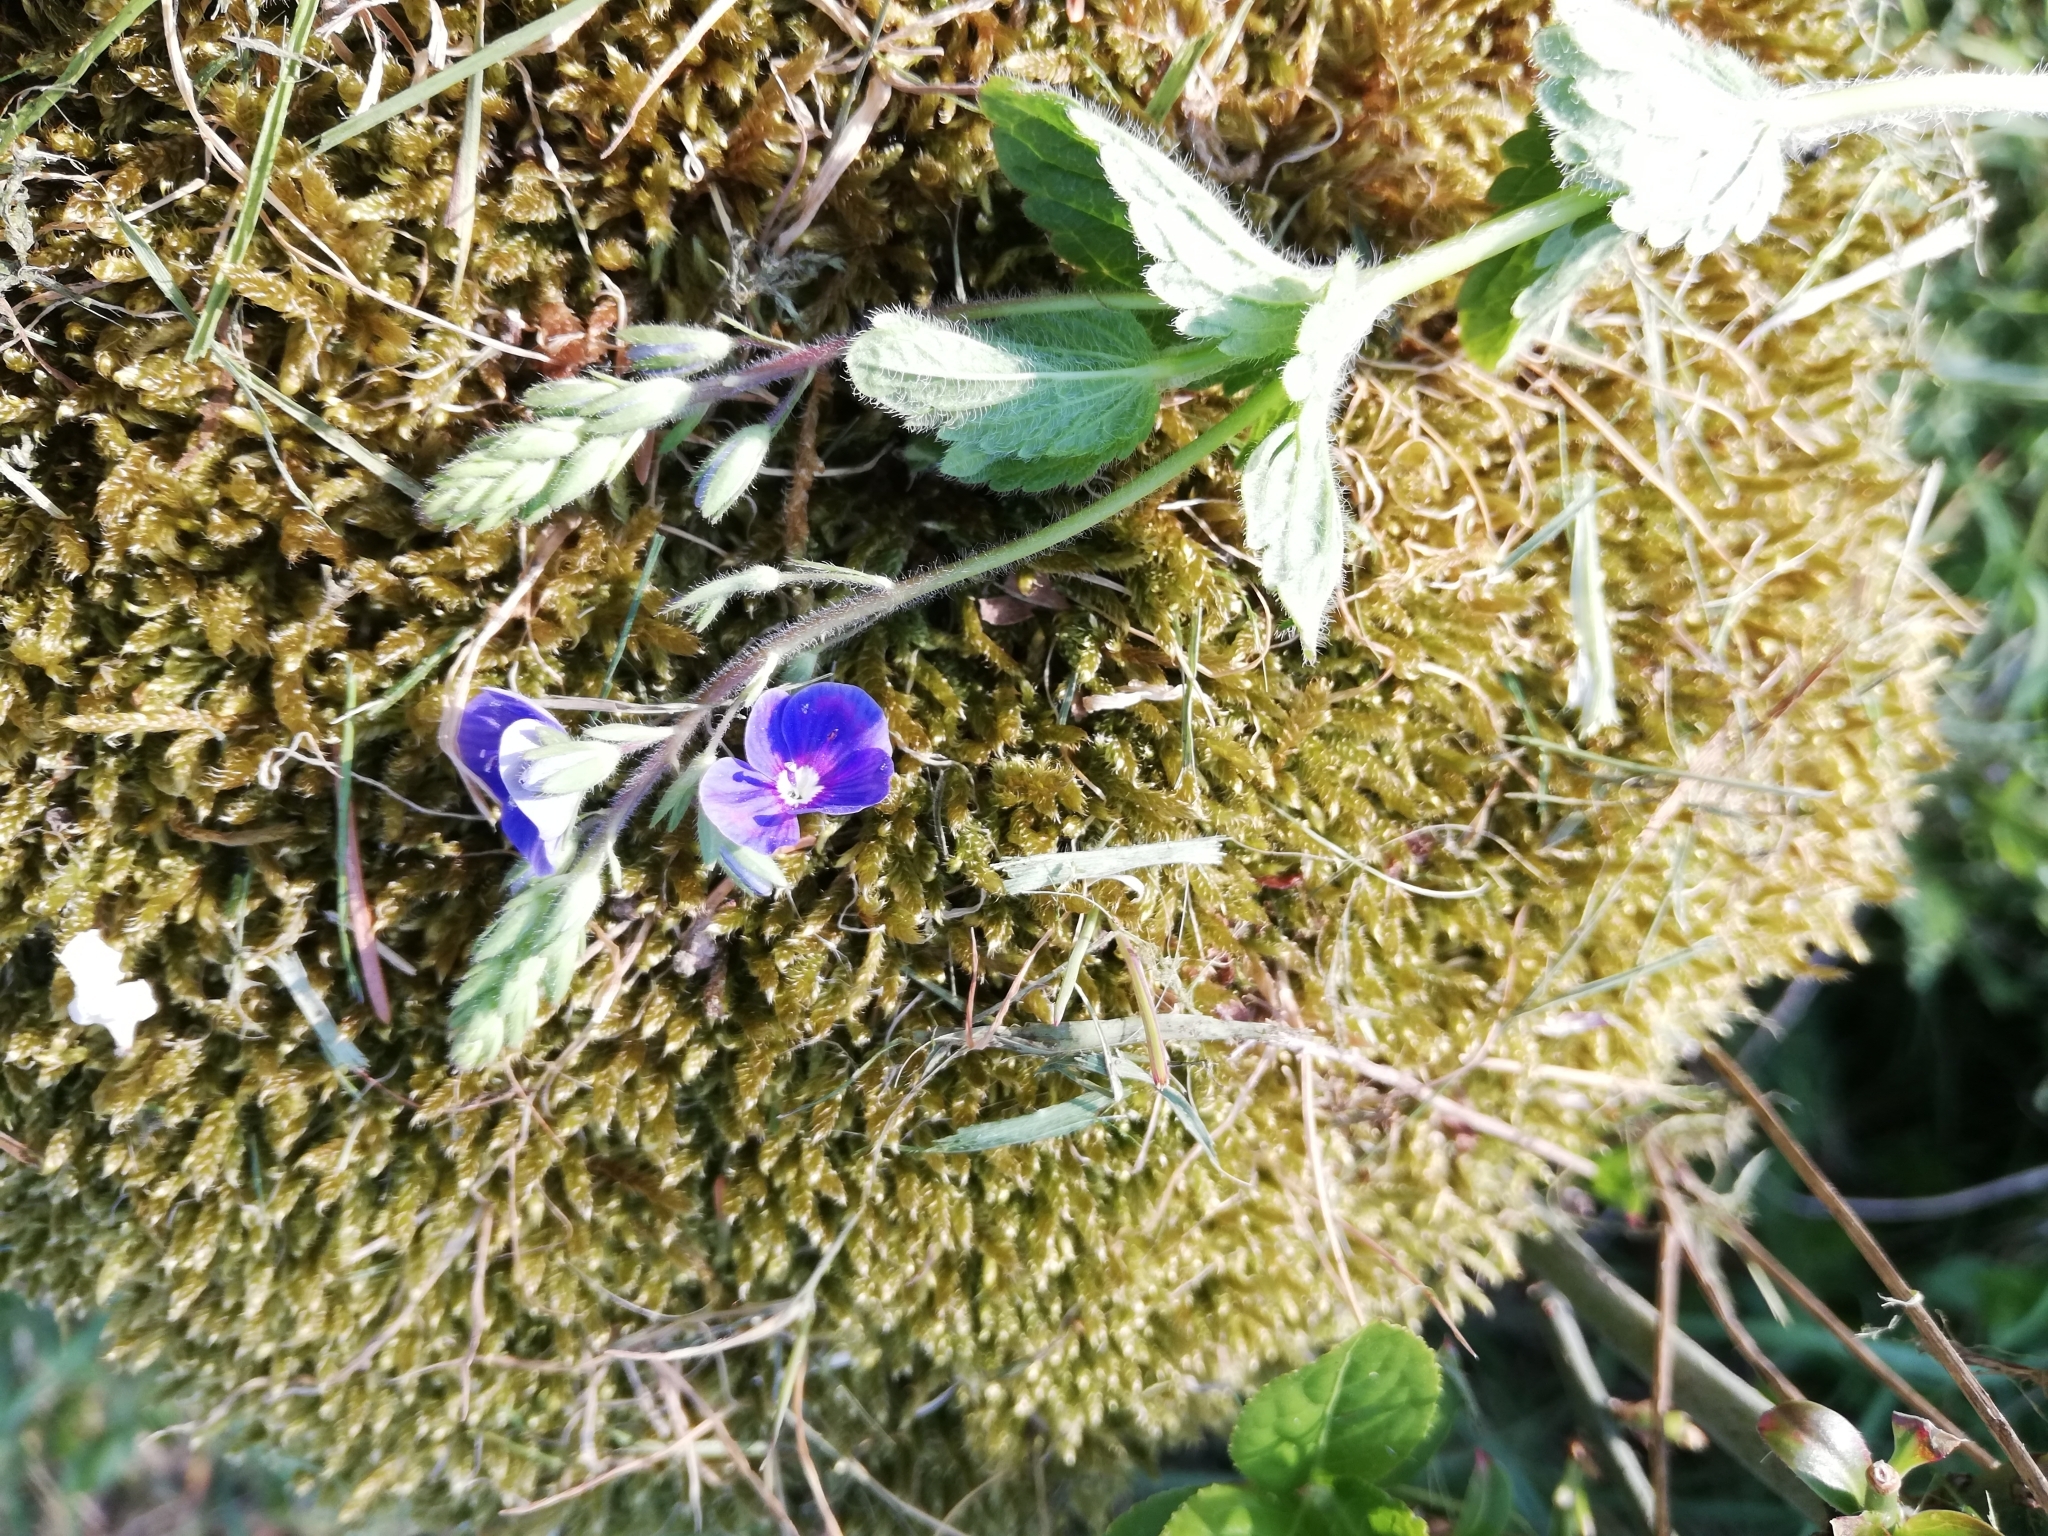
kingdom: Plantae
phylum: Tracheophyta
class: Magnoliopsida
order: Lamiales
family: Plantaginaceae
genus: Veronica
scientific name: Veronica chamaedrys
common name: Germander speedwell
